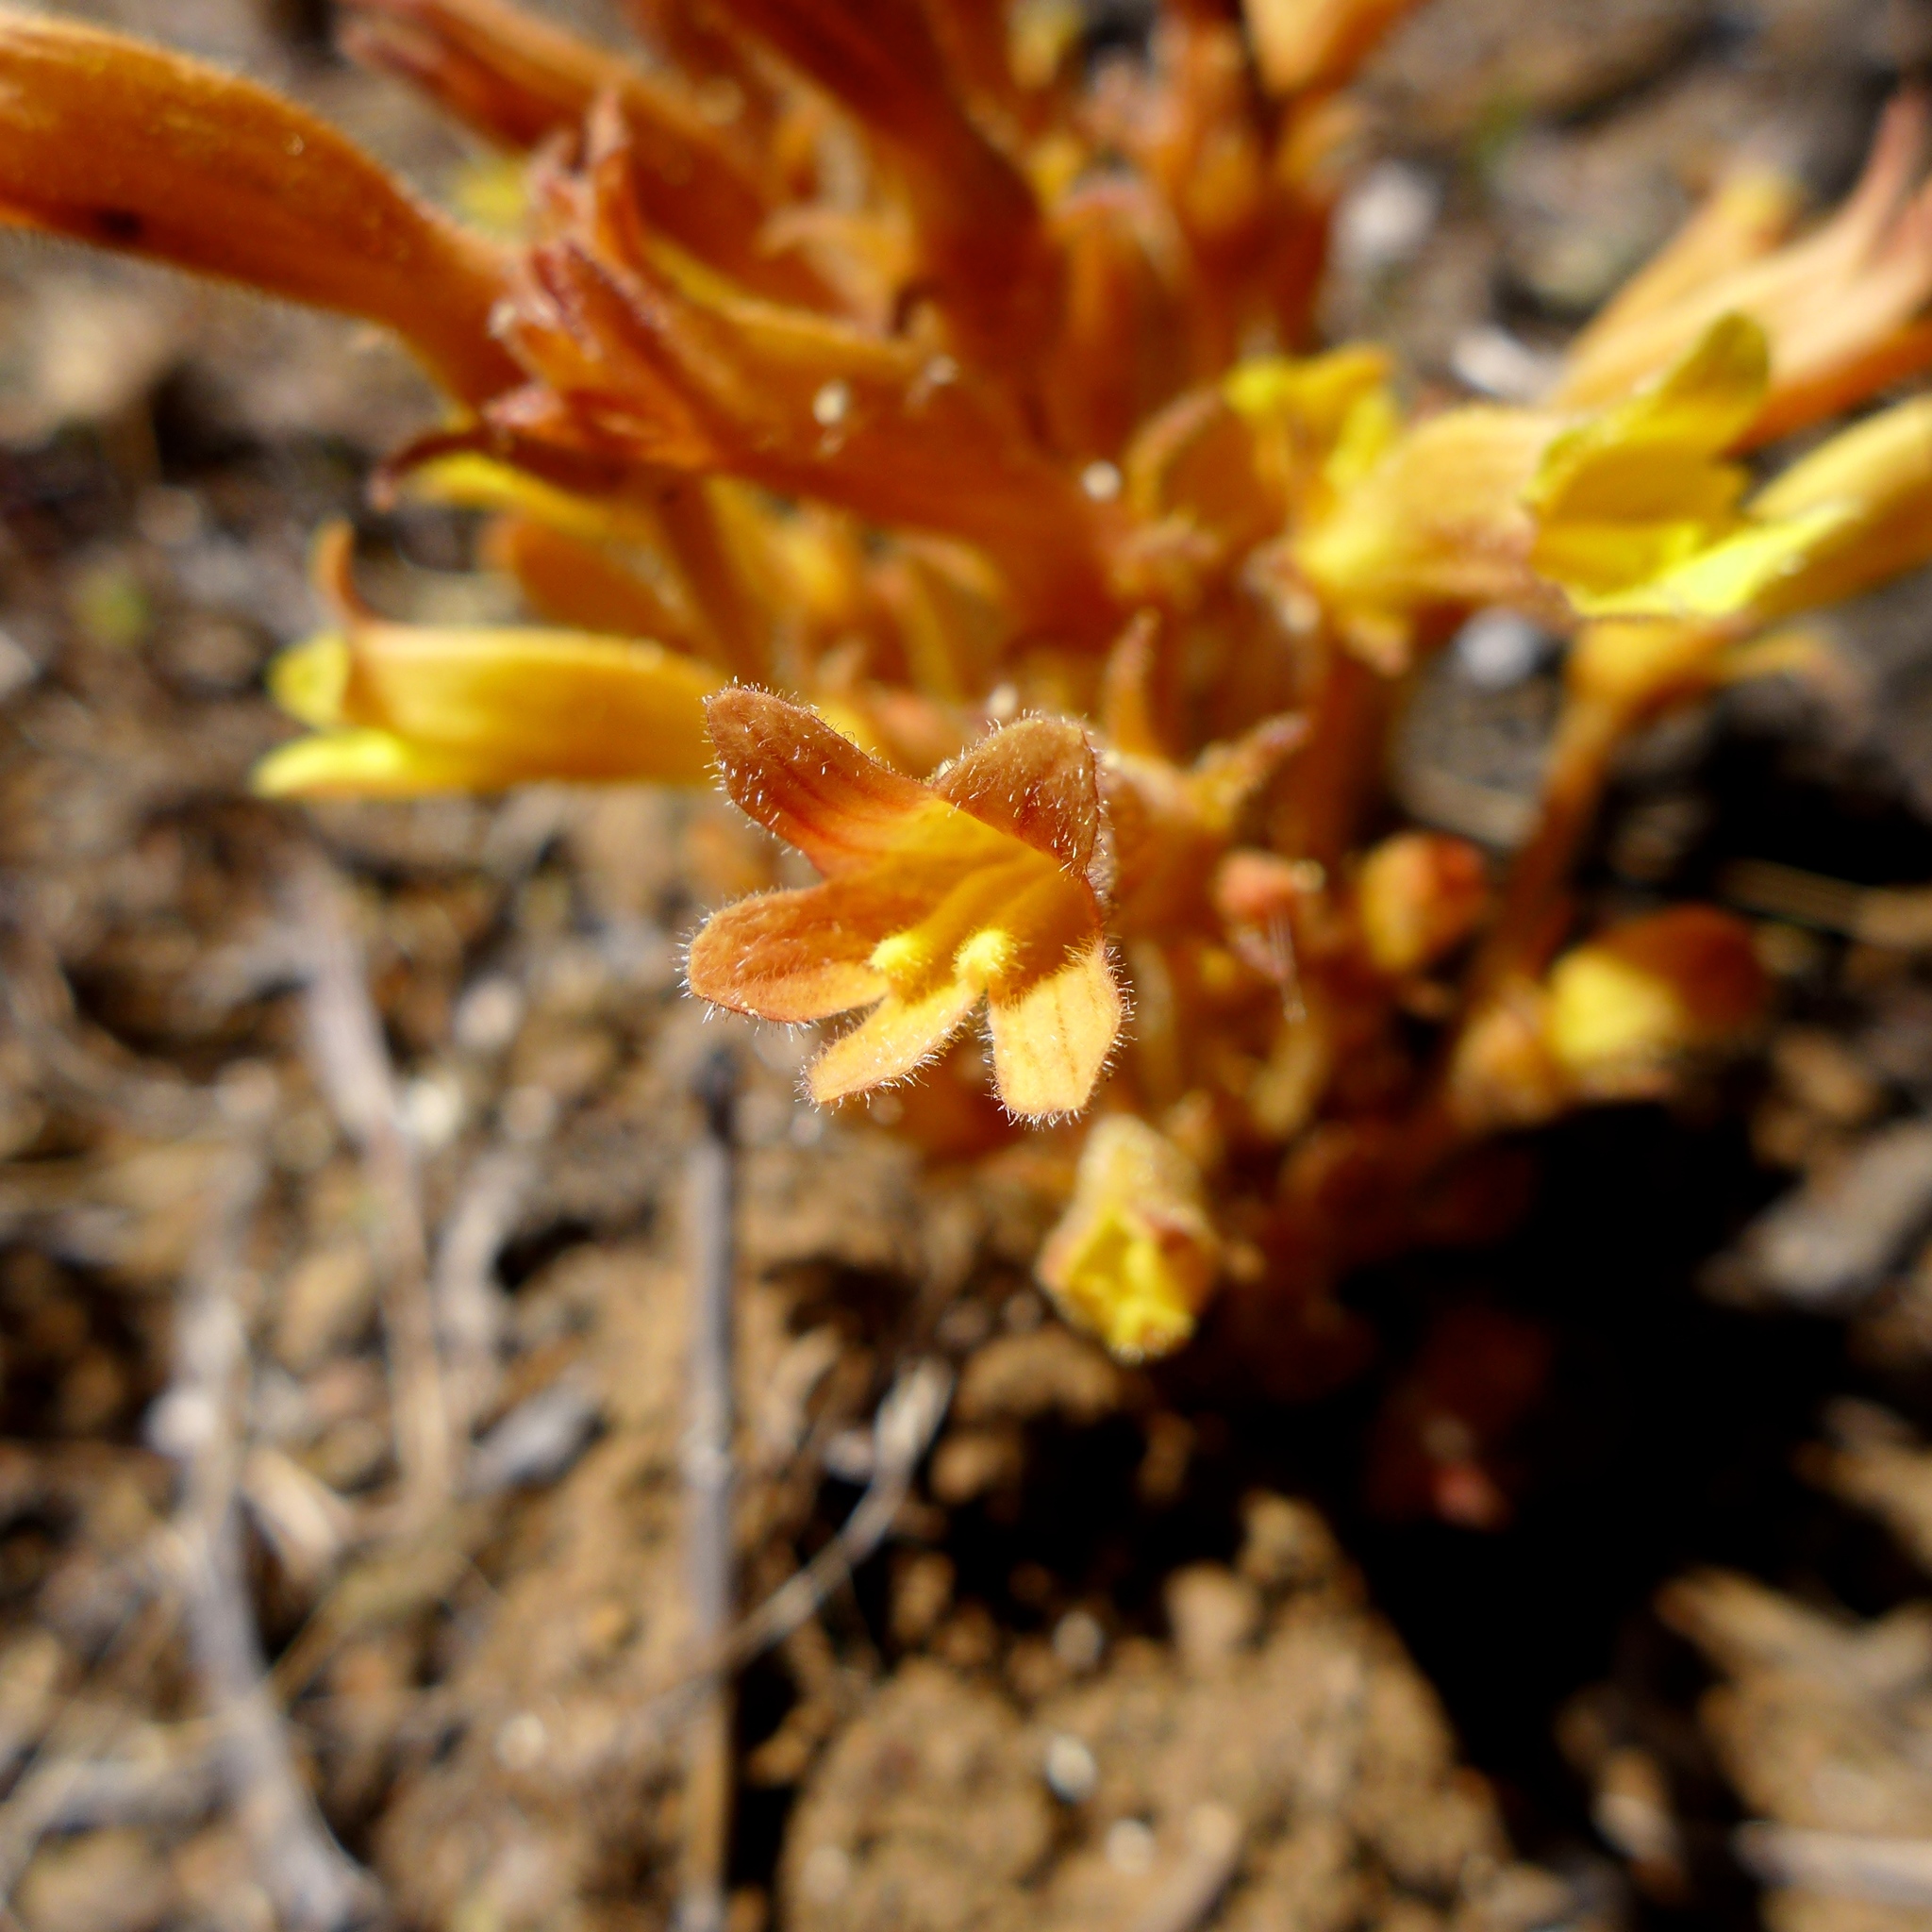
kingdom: Plantae
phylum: Tracheophyta
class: Magnoliopsida
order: Lamiales
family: Orobanchaceae
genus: Aphyllon
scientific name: Aphyllon franciscanum
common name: San francisco broomrape
